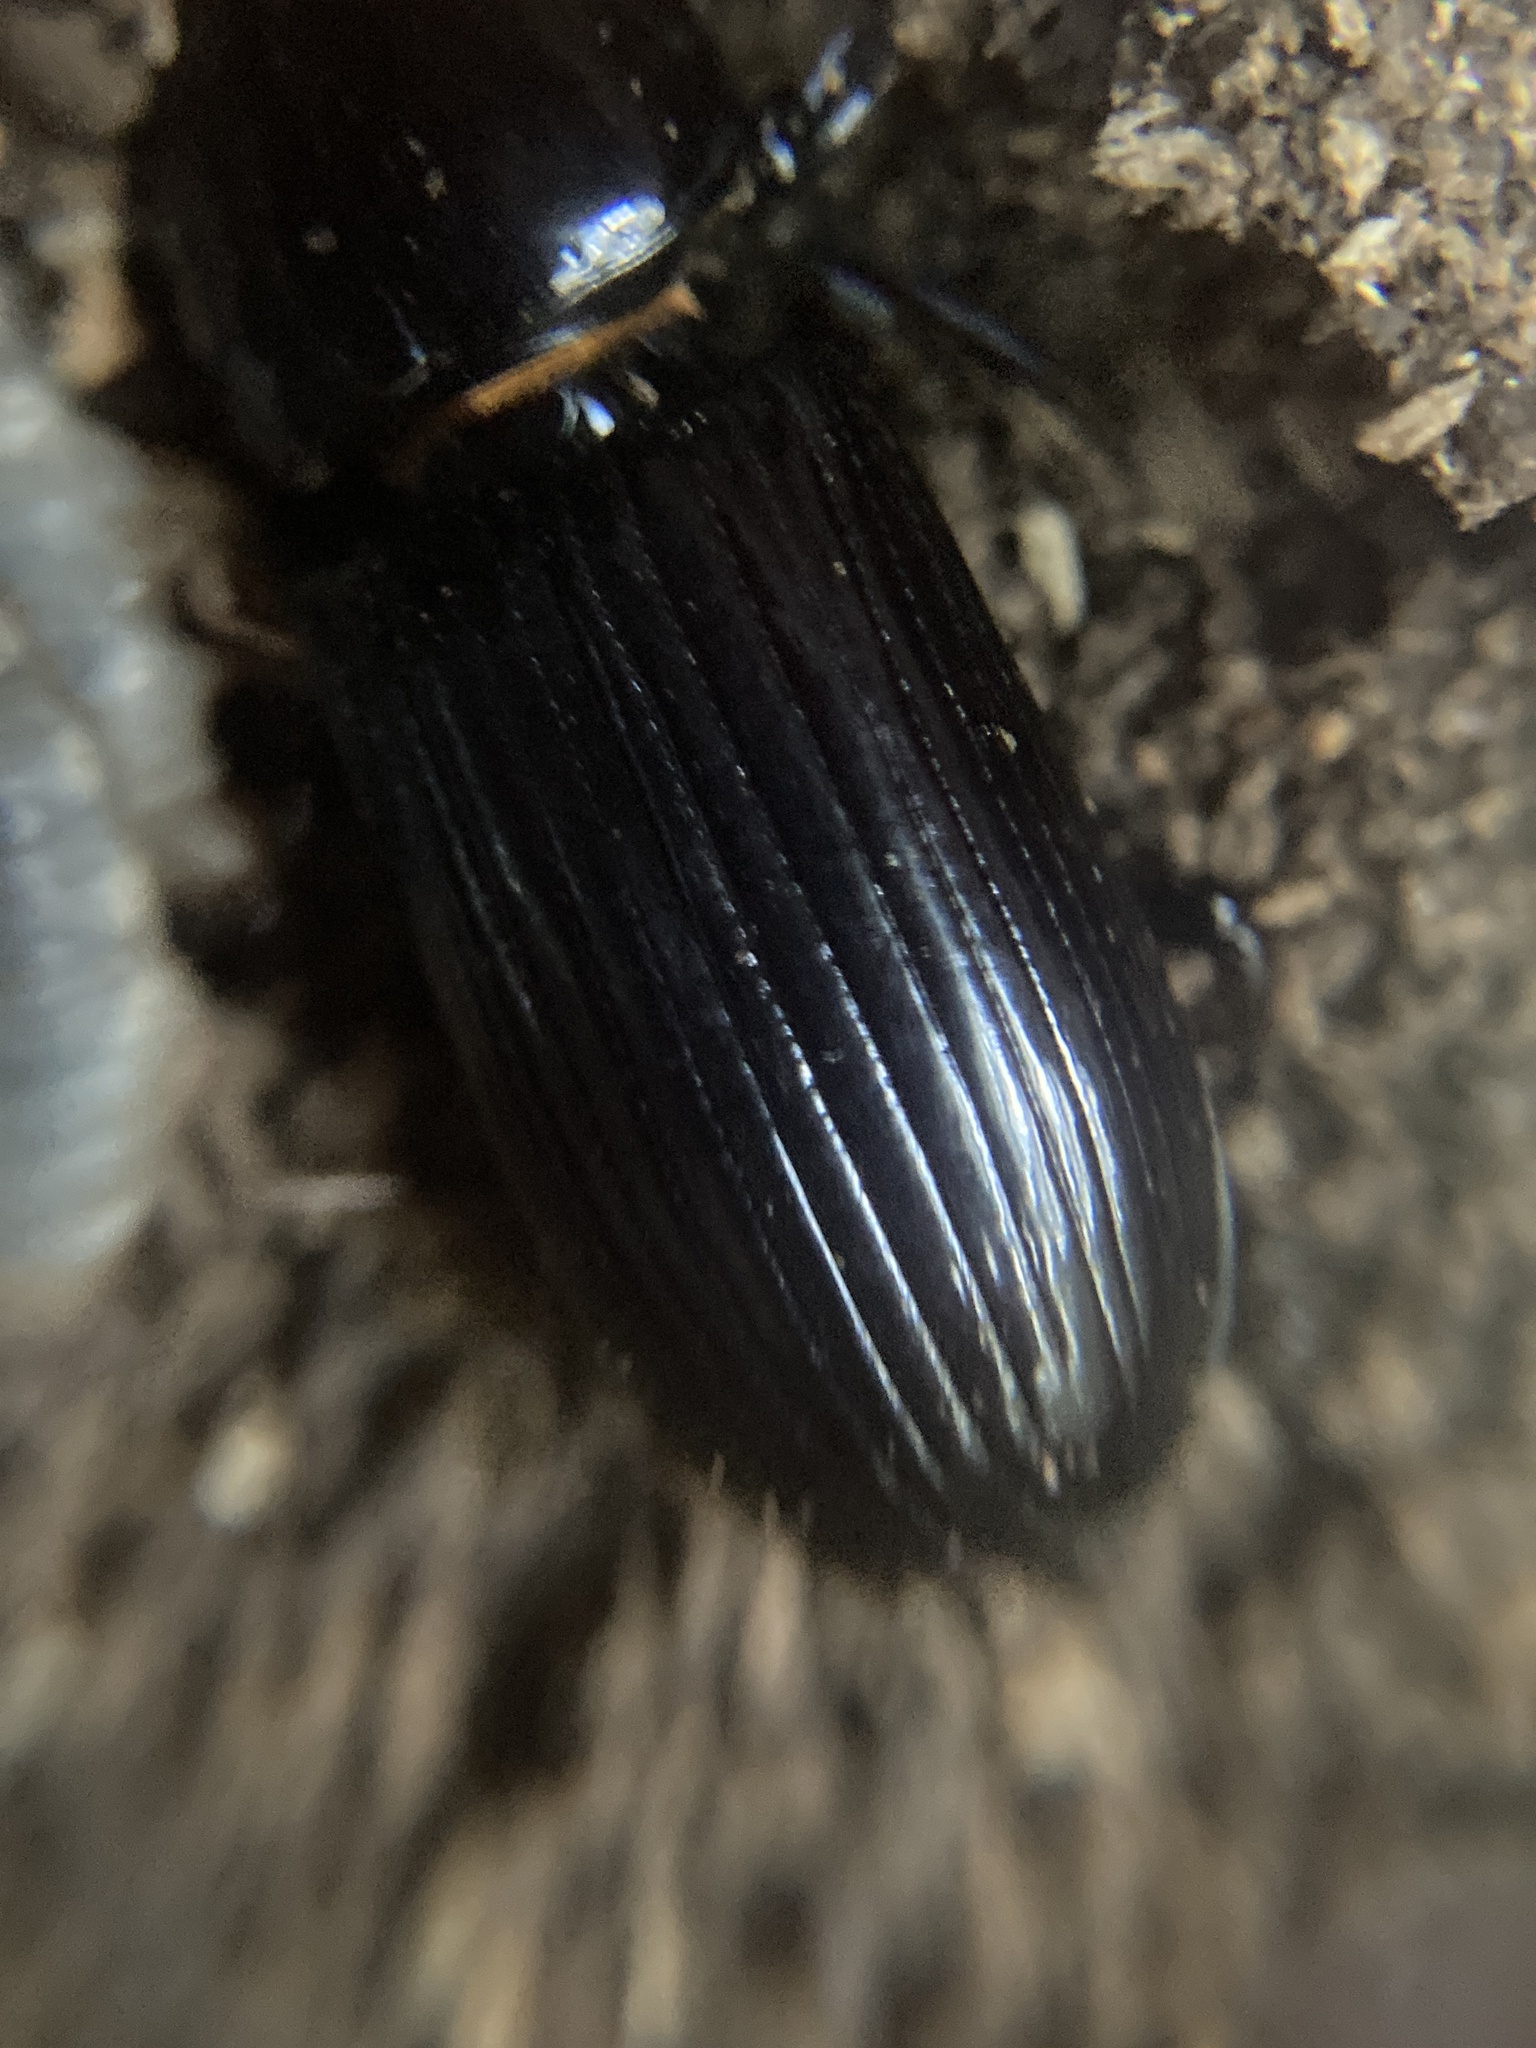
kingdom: Animalia
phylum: Arthropoda
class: Insecta
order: Coleoptera
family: Passalidae
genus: Aulacocyclus
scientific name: Aulacocyclus edentulus
